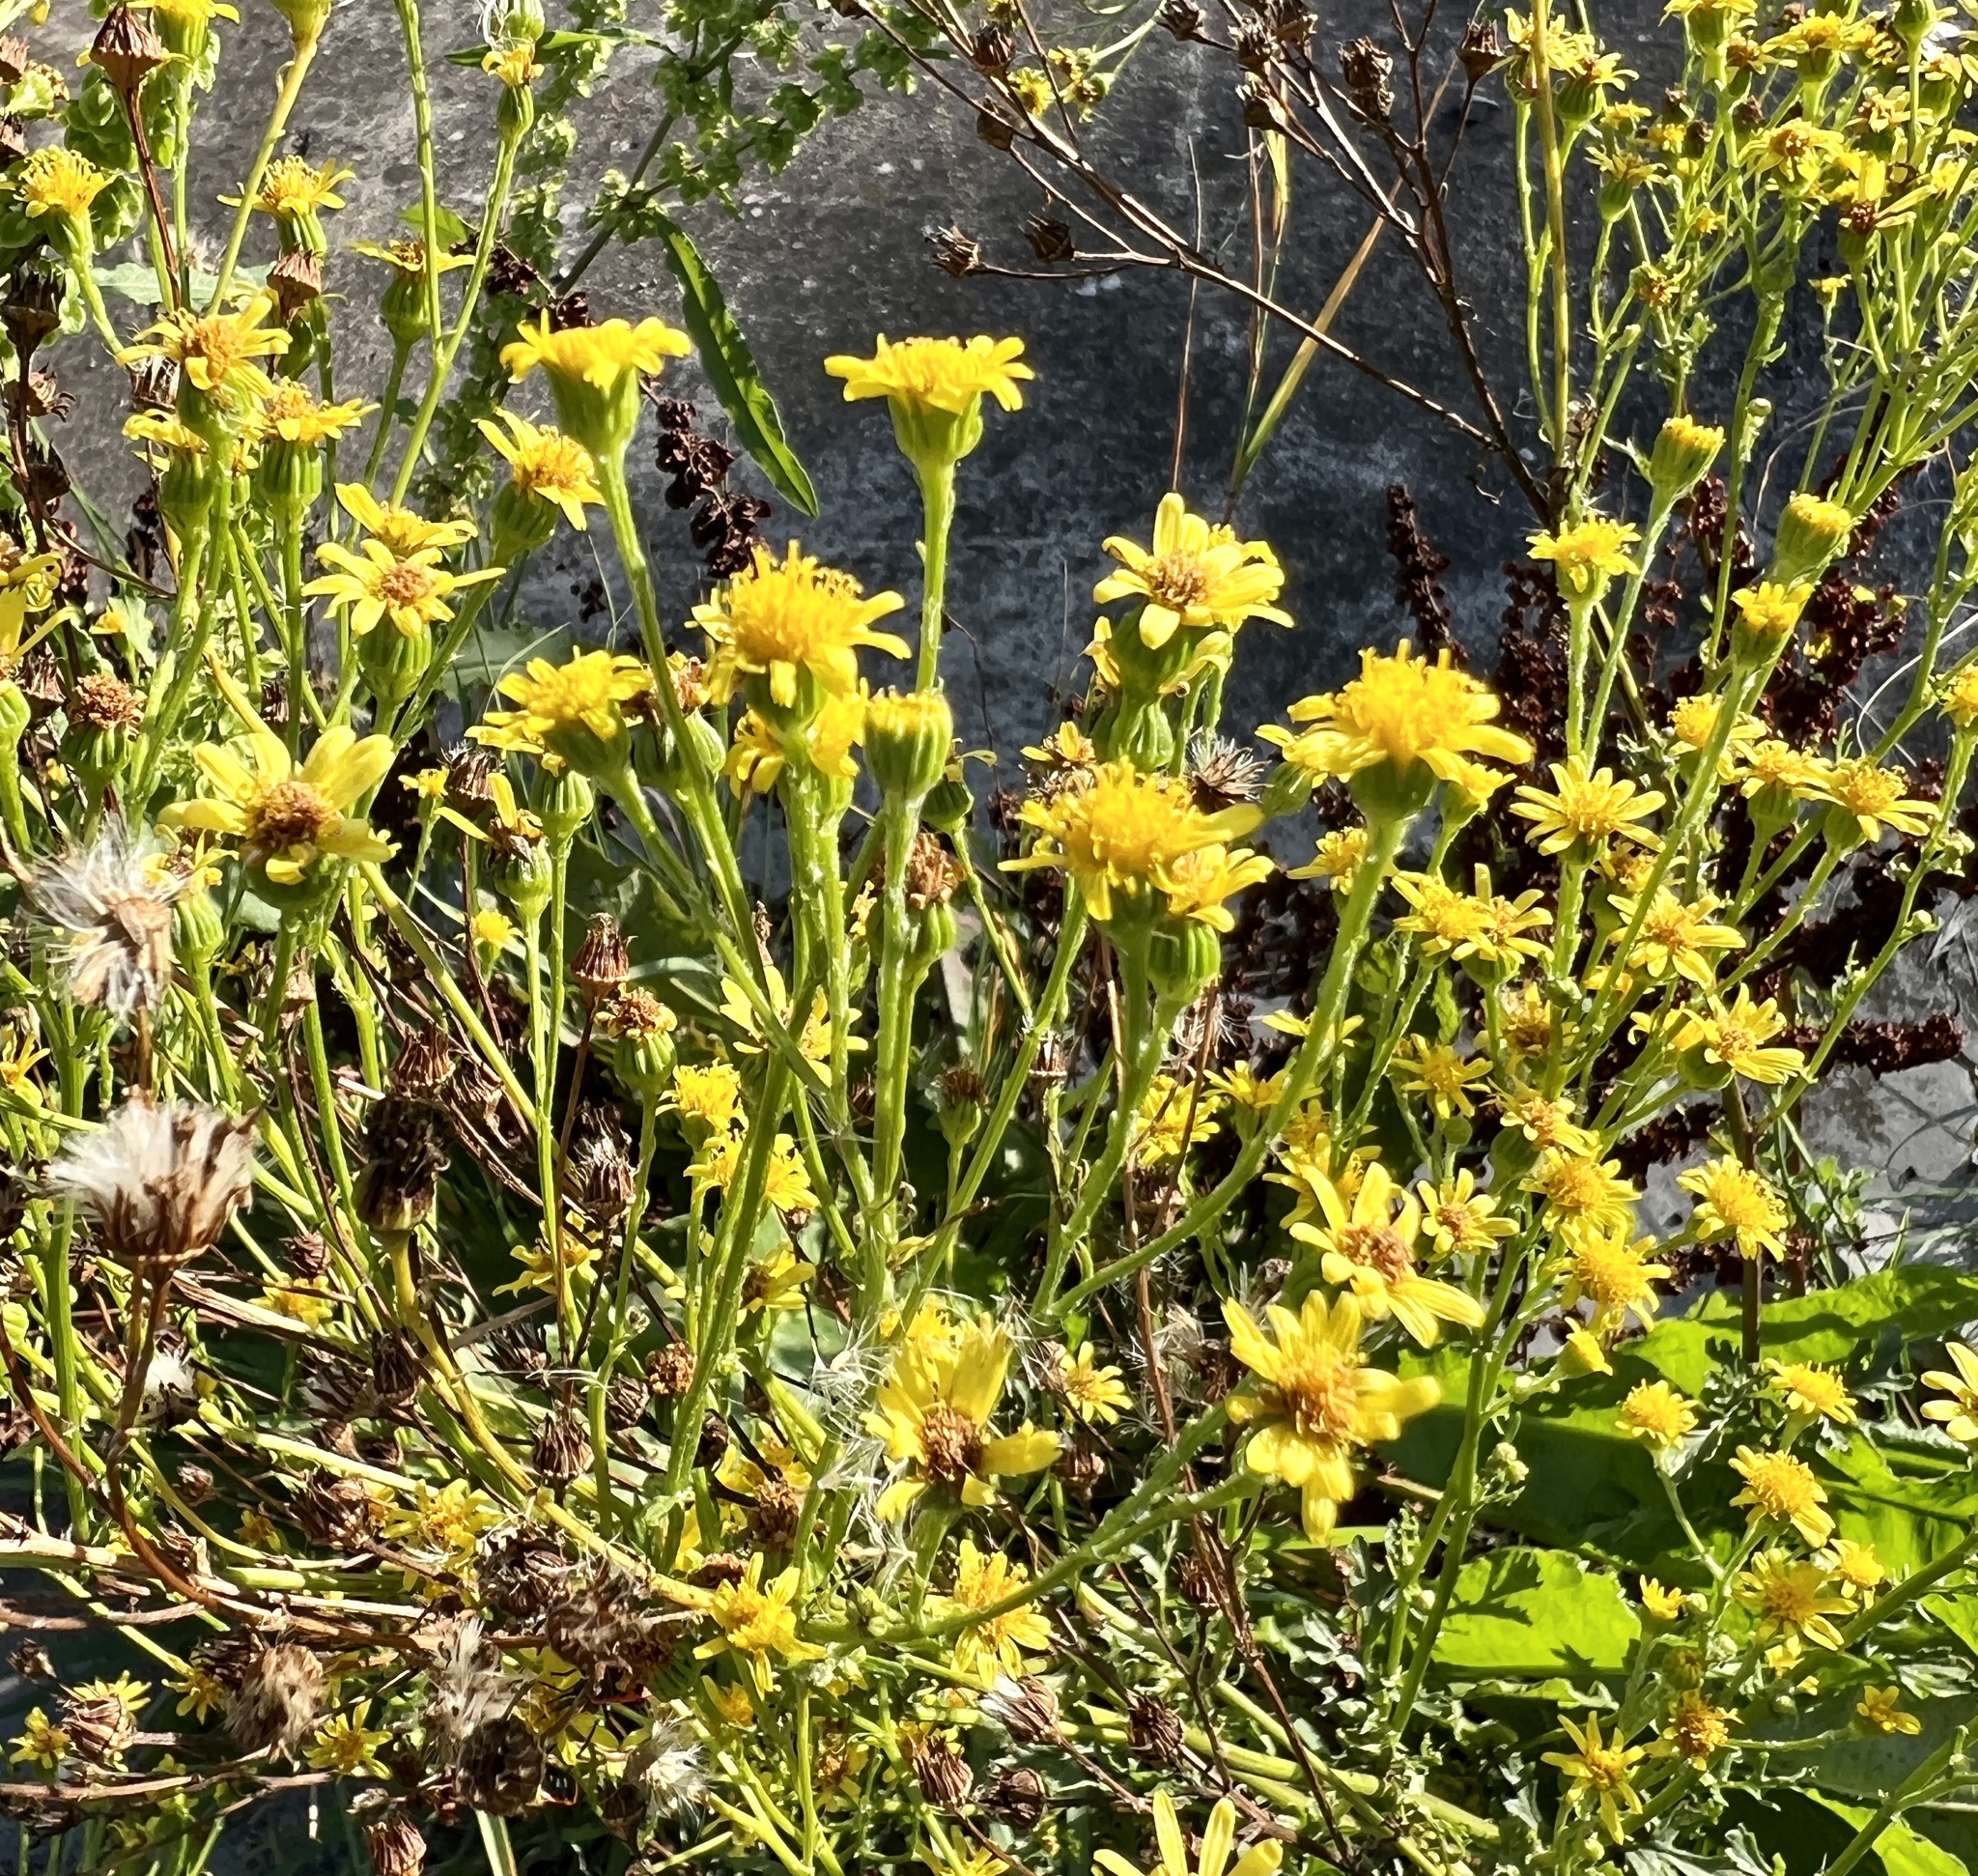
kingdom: Plantae
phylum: Tracheophyta
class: Magnoliopsida
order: Asterales
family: Asteraceae
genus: Jacobaea
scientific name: Jacobaea vulgaris
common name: Stinking willie
